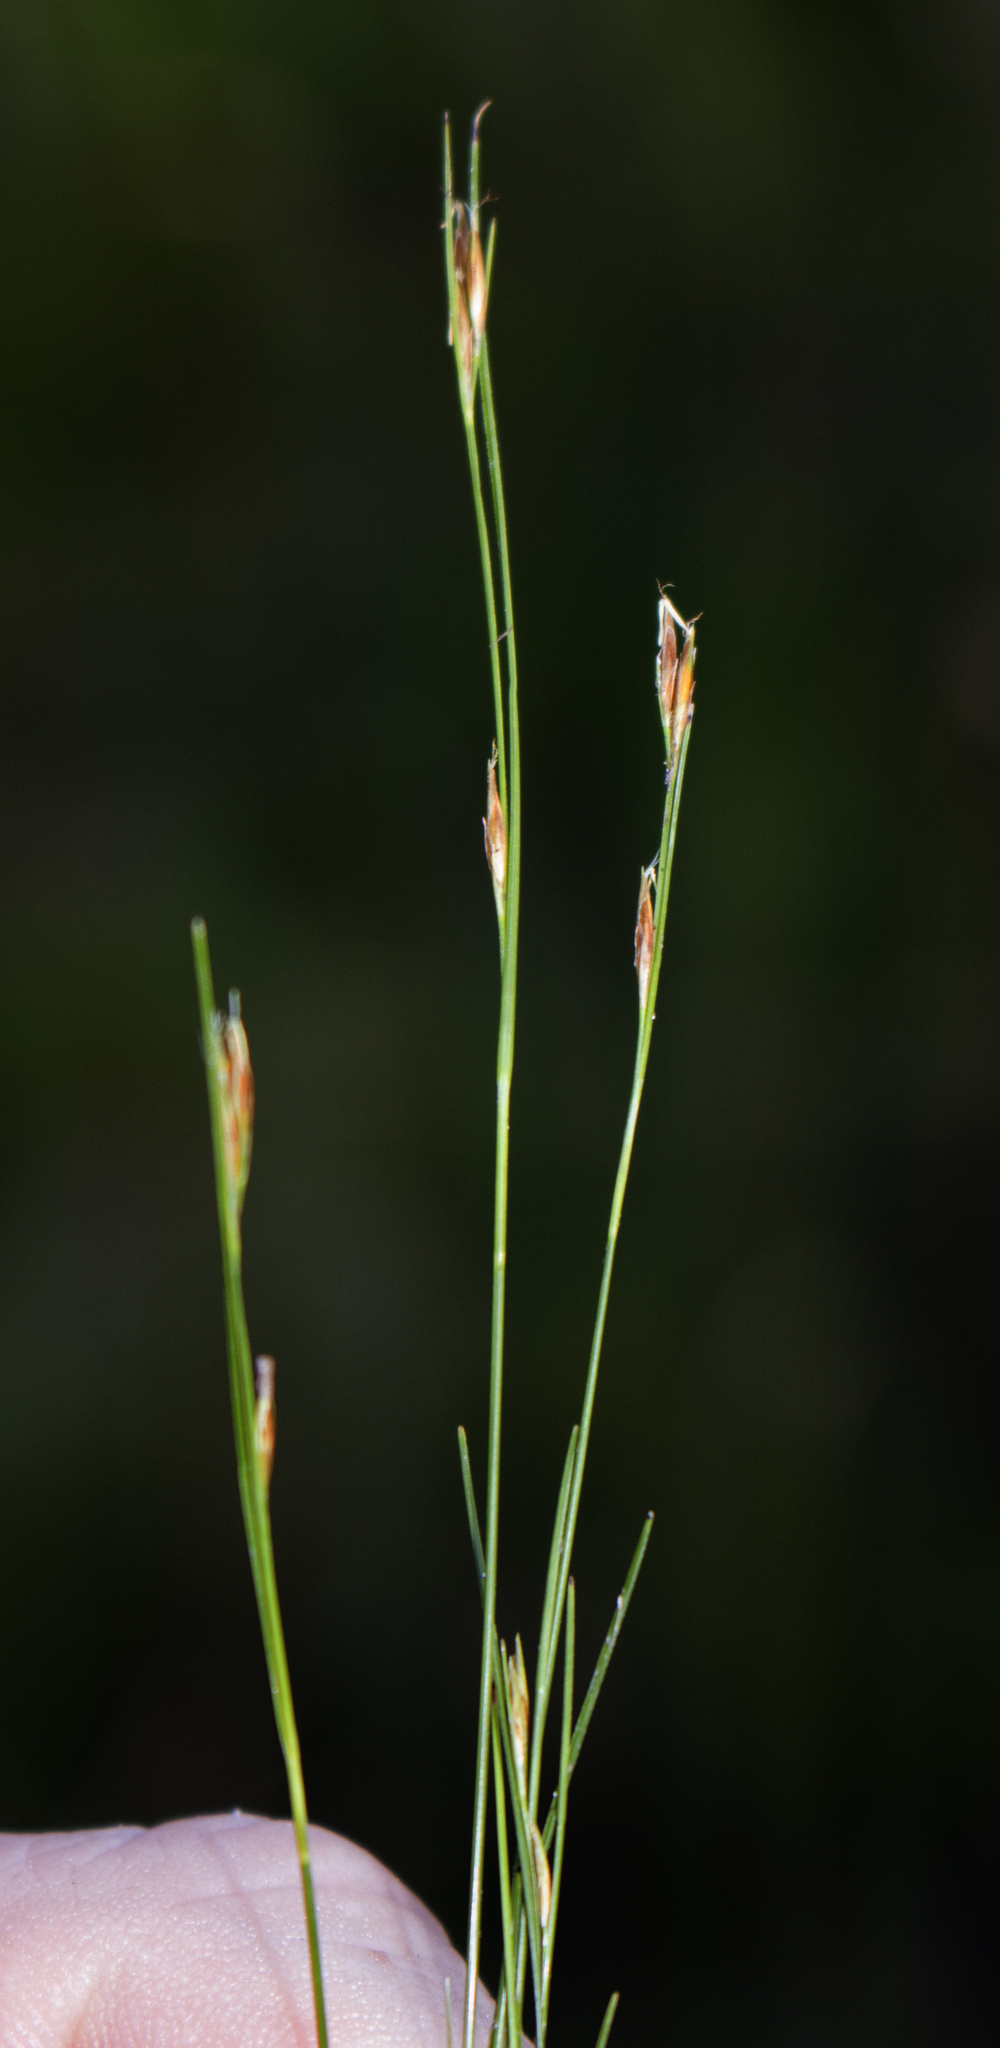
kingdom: Plantae
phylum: Tracheophyta
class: Liliopsida
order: Poales
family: Cyperaceae
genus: Rhynchospora
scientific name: Rhynchospora capillacea
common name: Capillary beakrush
